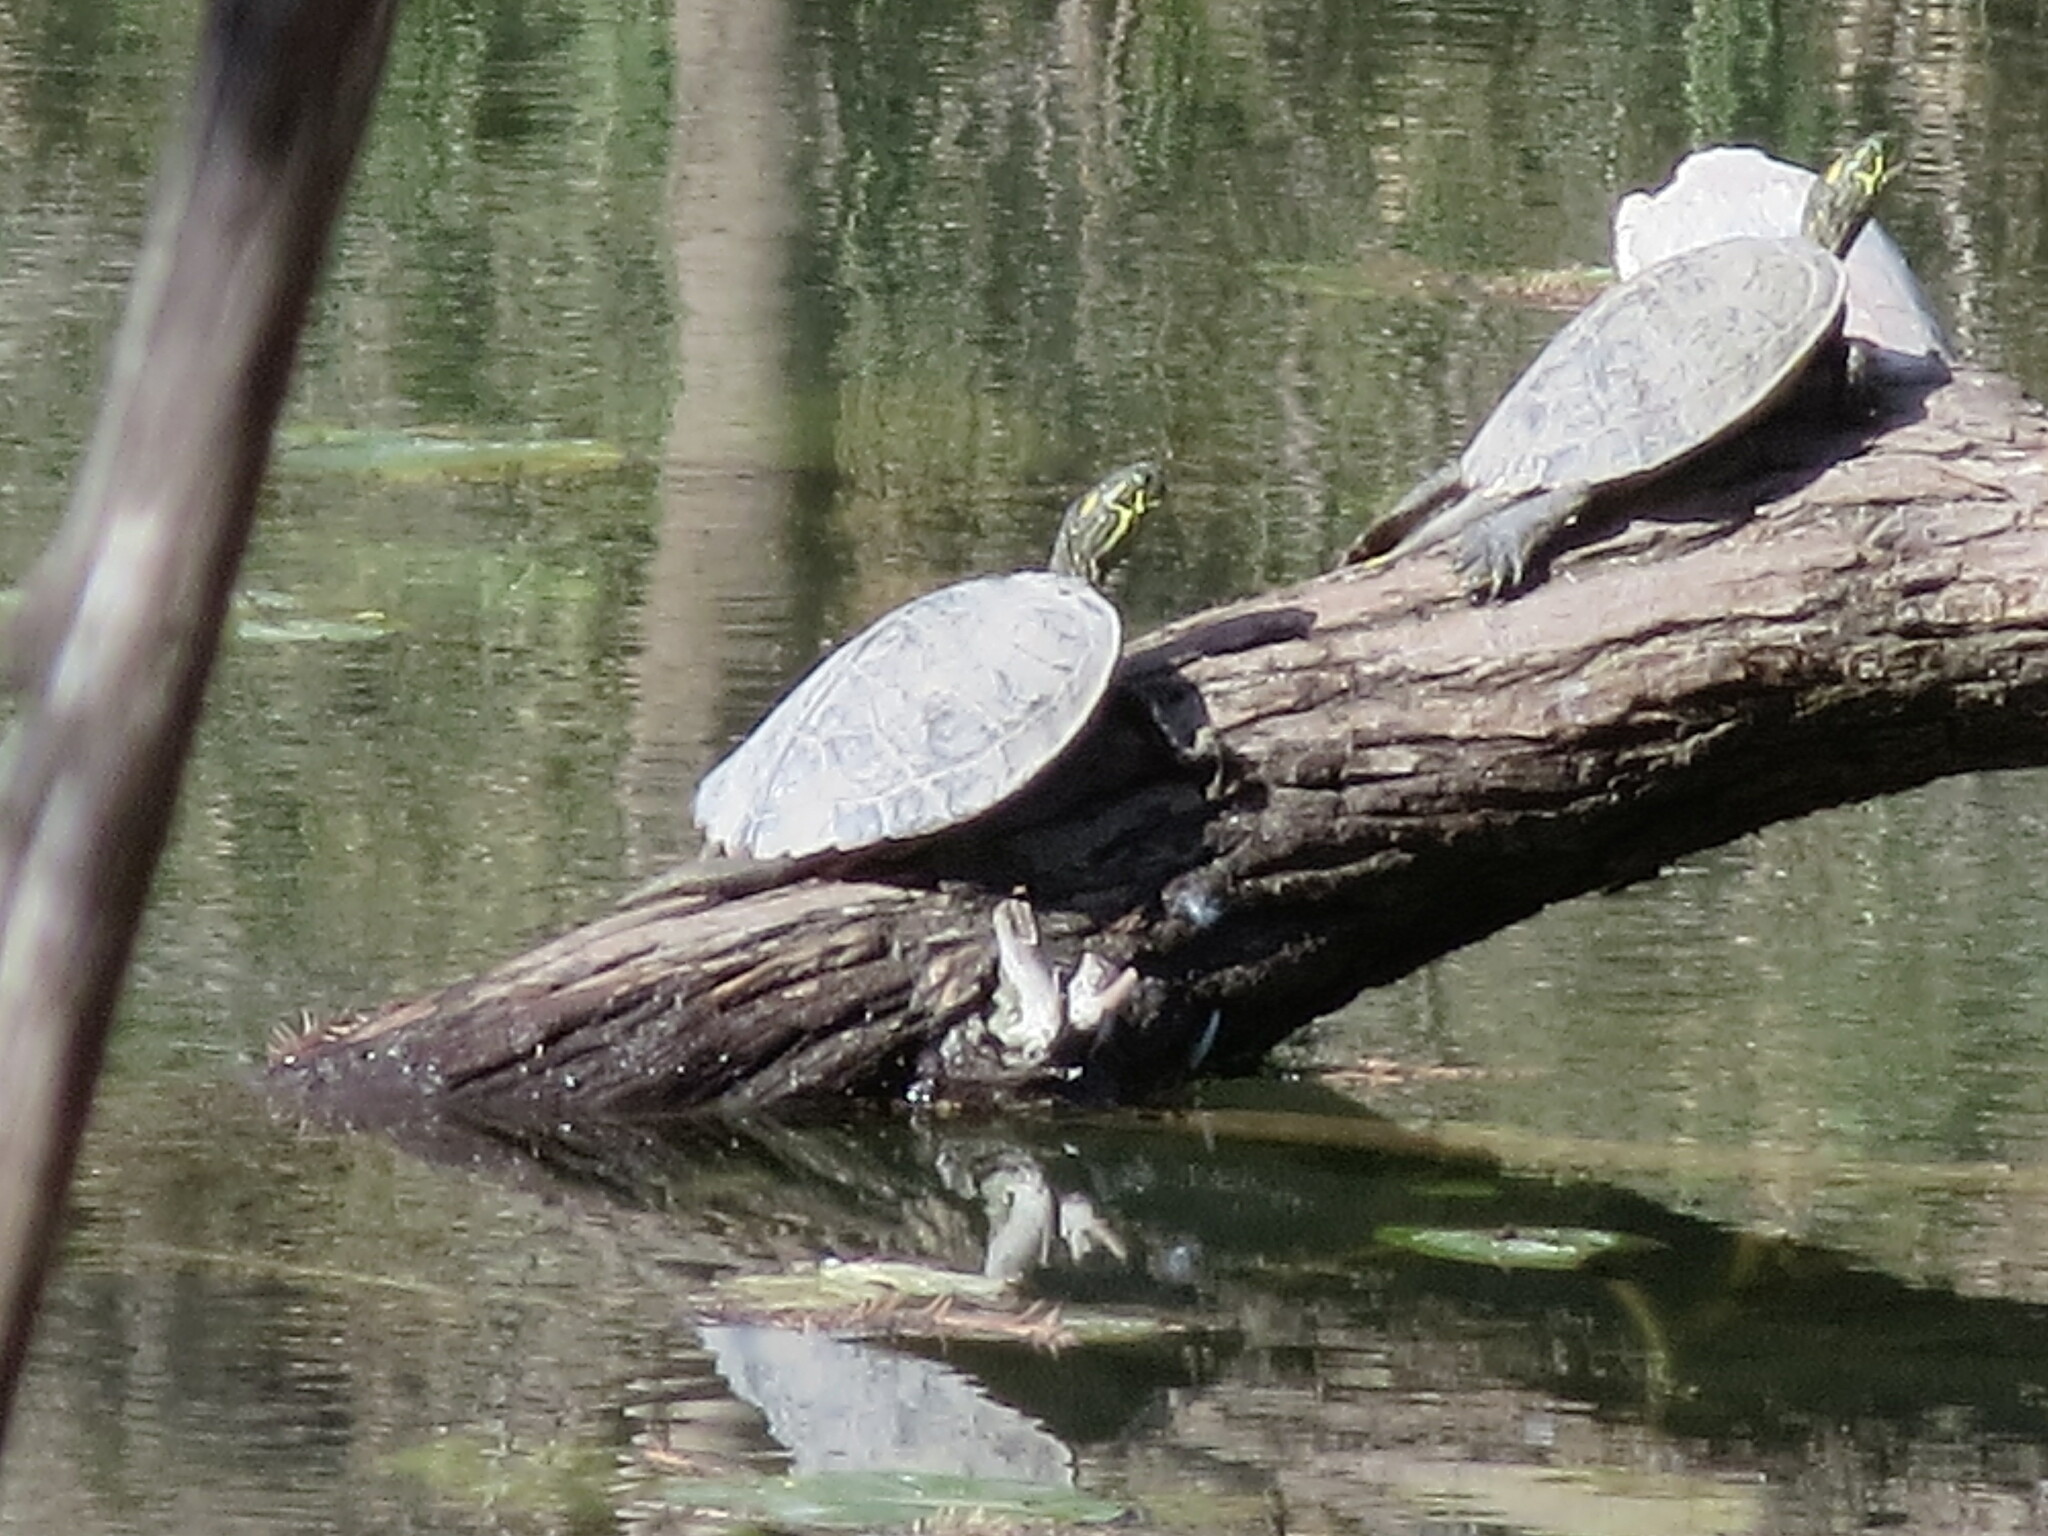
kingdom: Animalia
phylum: Chordata
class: Testudines
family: Emydidae
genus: Pseudemys
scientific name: Pseudemys texana
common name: Texas river cooter
